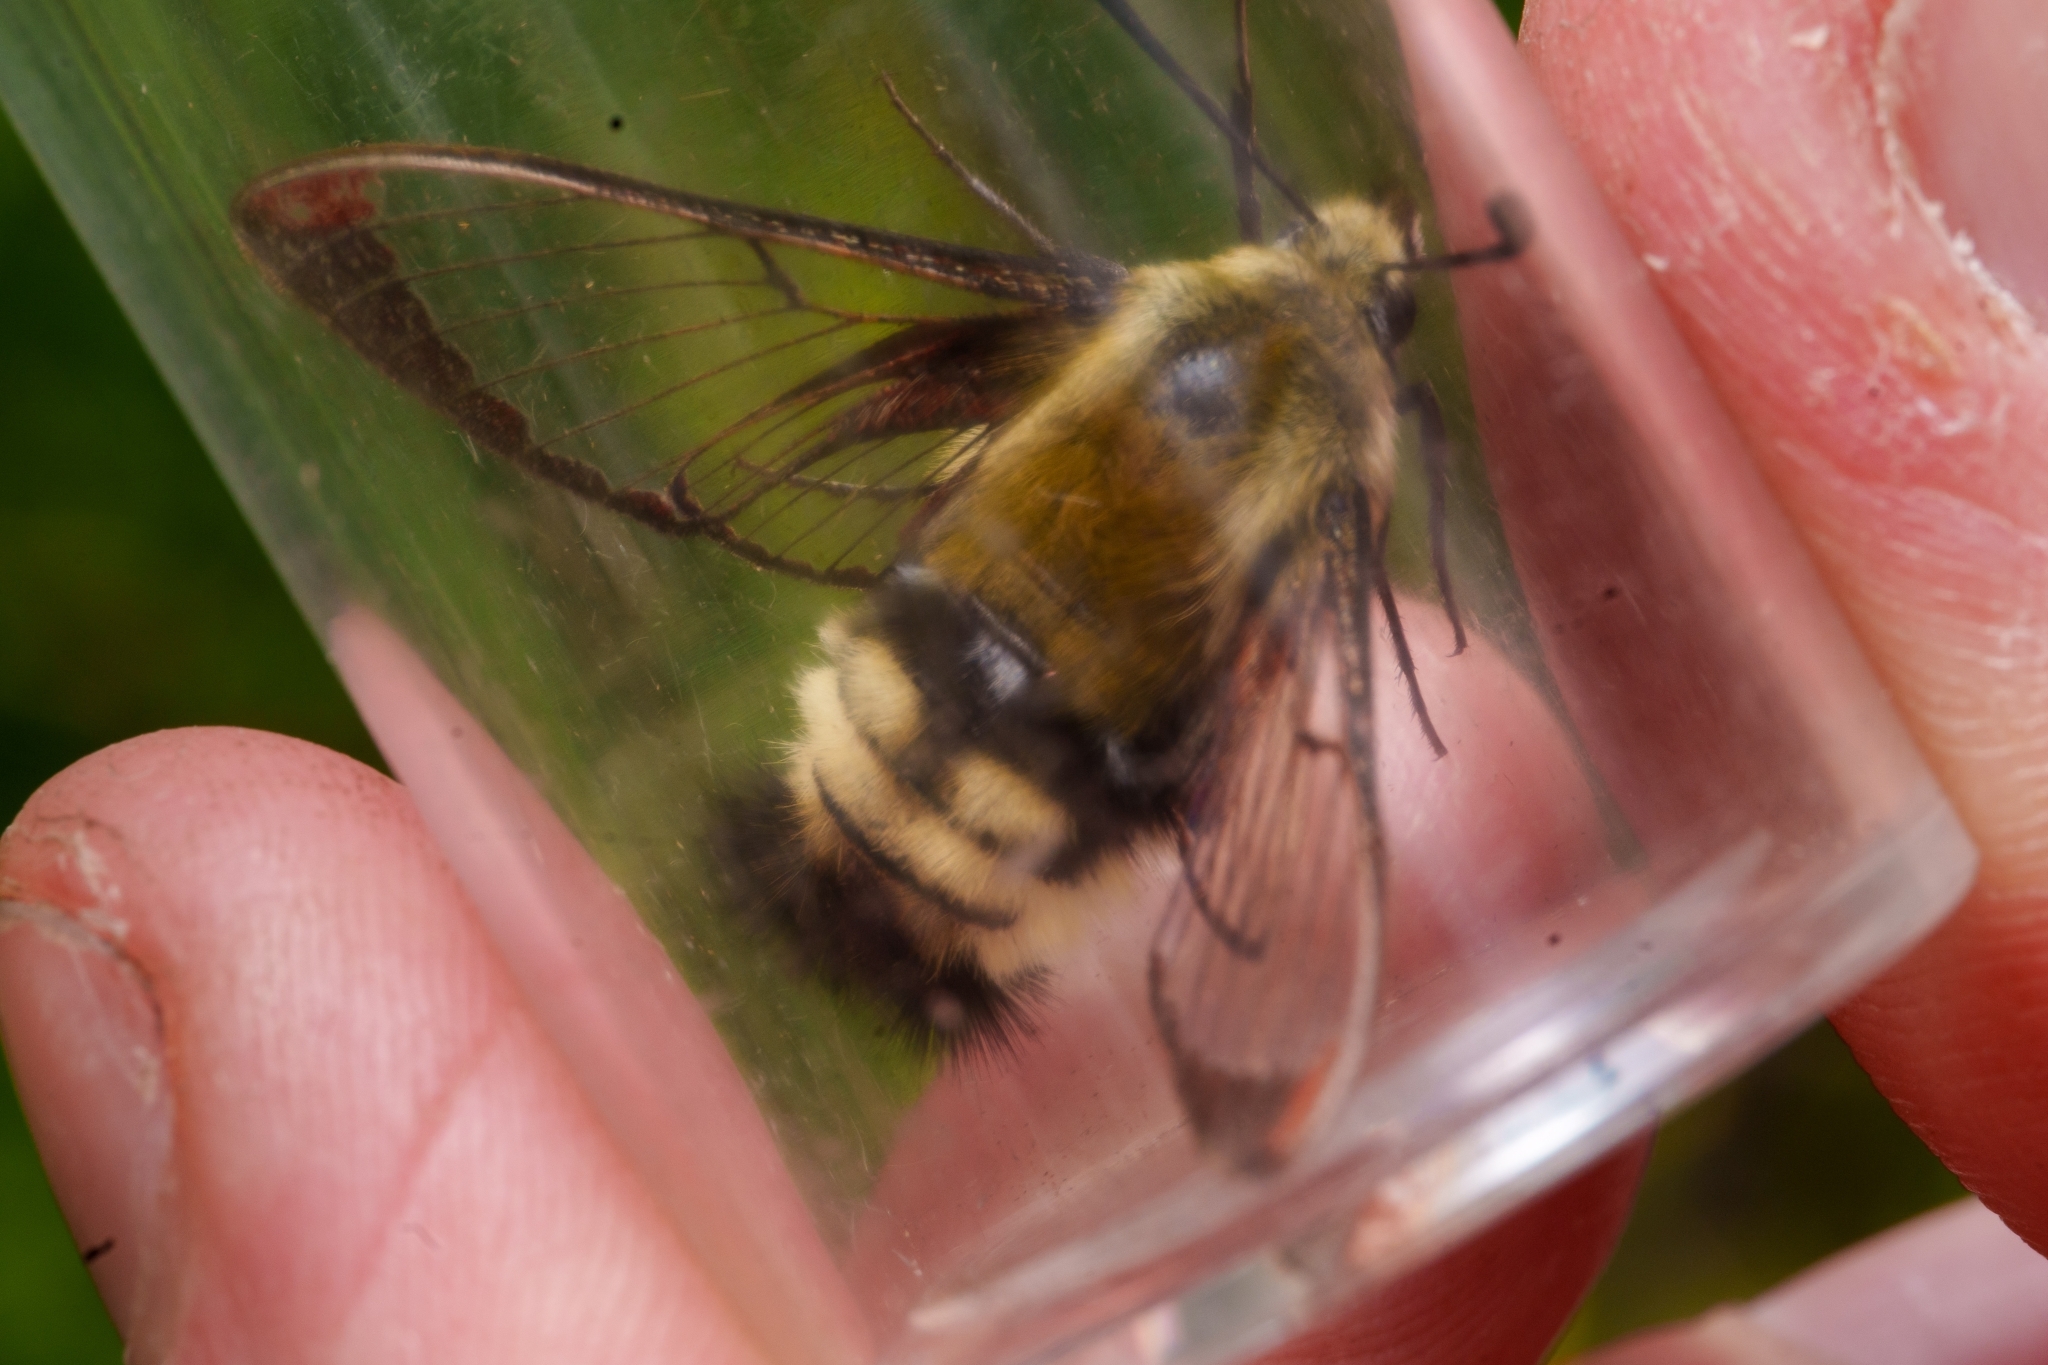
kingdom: Animalia
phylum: Arthropoda
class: Insecta
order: Lepidoptera
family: Sphingidae
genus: Hemaris
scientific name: Hemaris thetis
